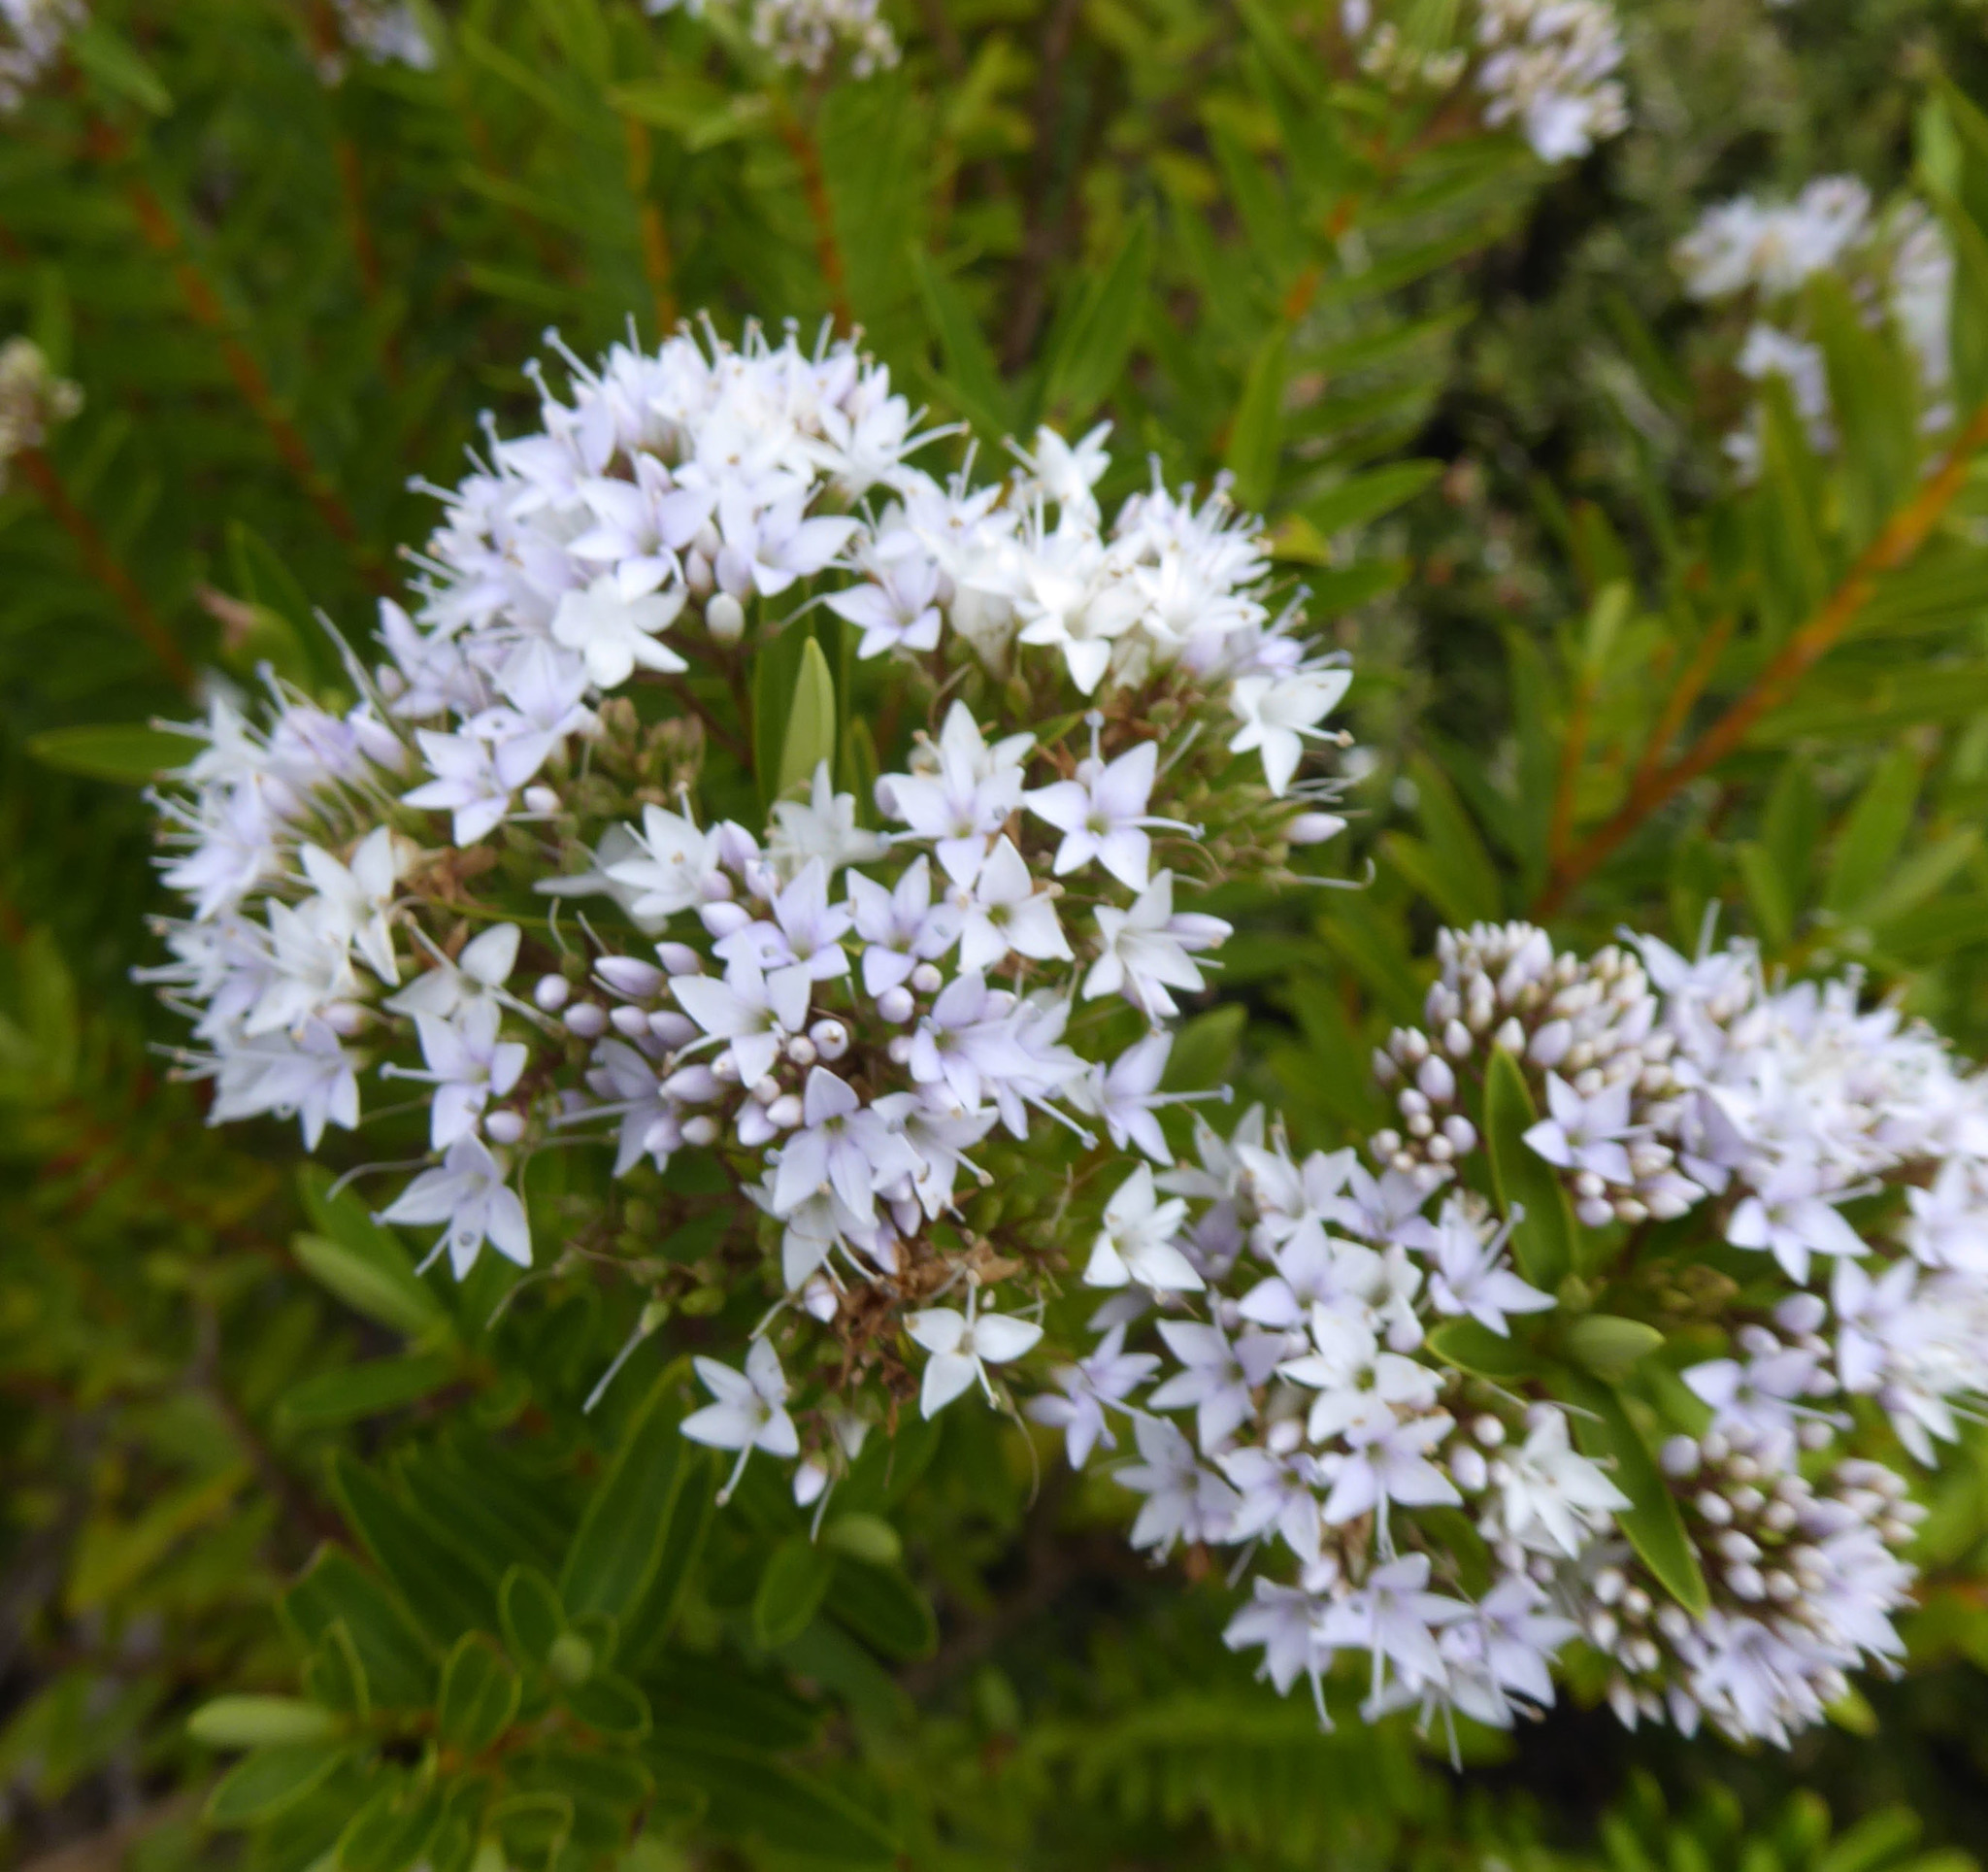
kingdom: Plantae
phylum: Tracheophyta
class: Magnoliopsida
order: Lamiales
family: Plantaginaceae
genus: Veronica
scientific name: Veronica diosmifolia
